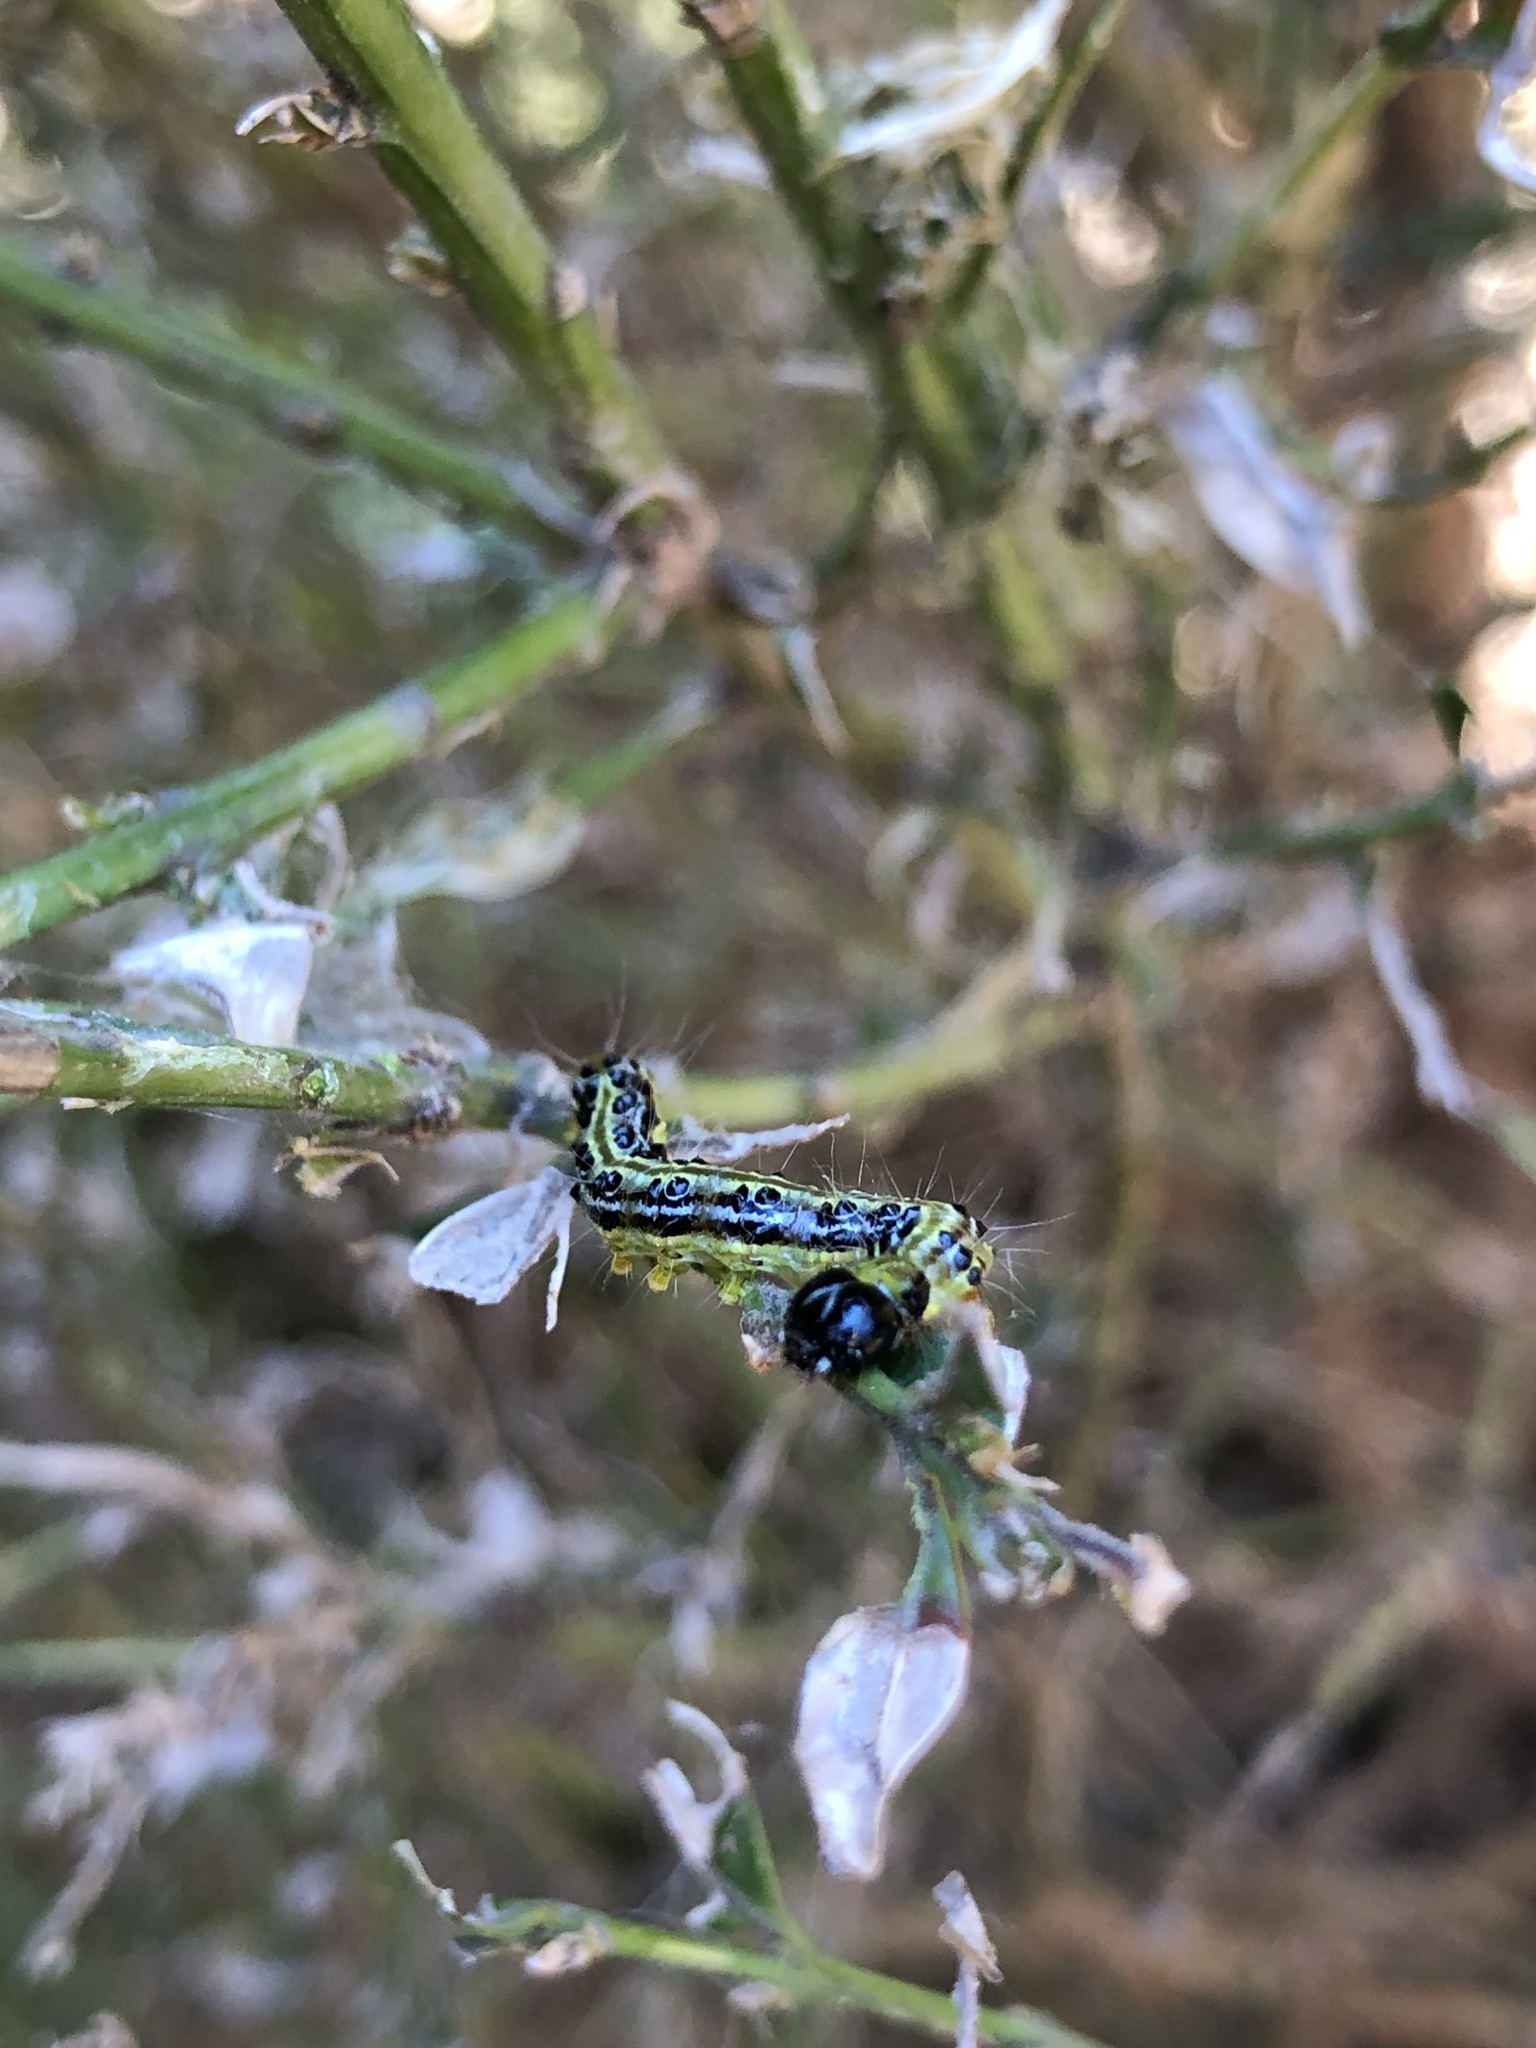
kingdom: Animalia
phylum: Arthropoda
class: Insecta
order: Lepidoptera
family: Crambidae
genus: Cydalima
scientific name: Cydalima perspectalis
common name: Box tree moth
